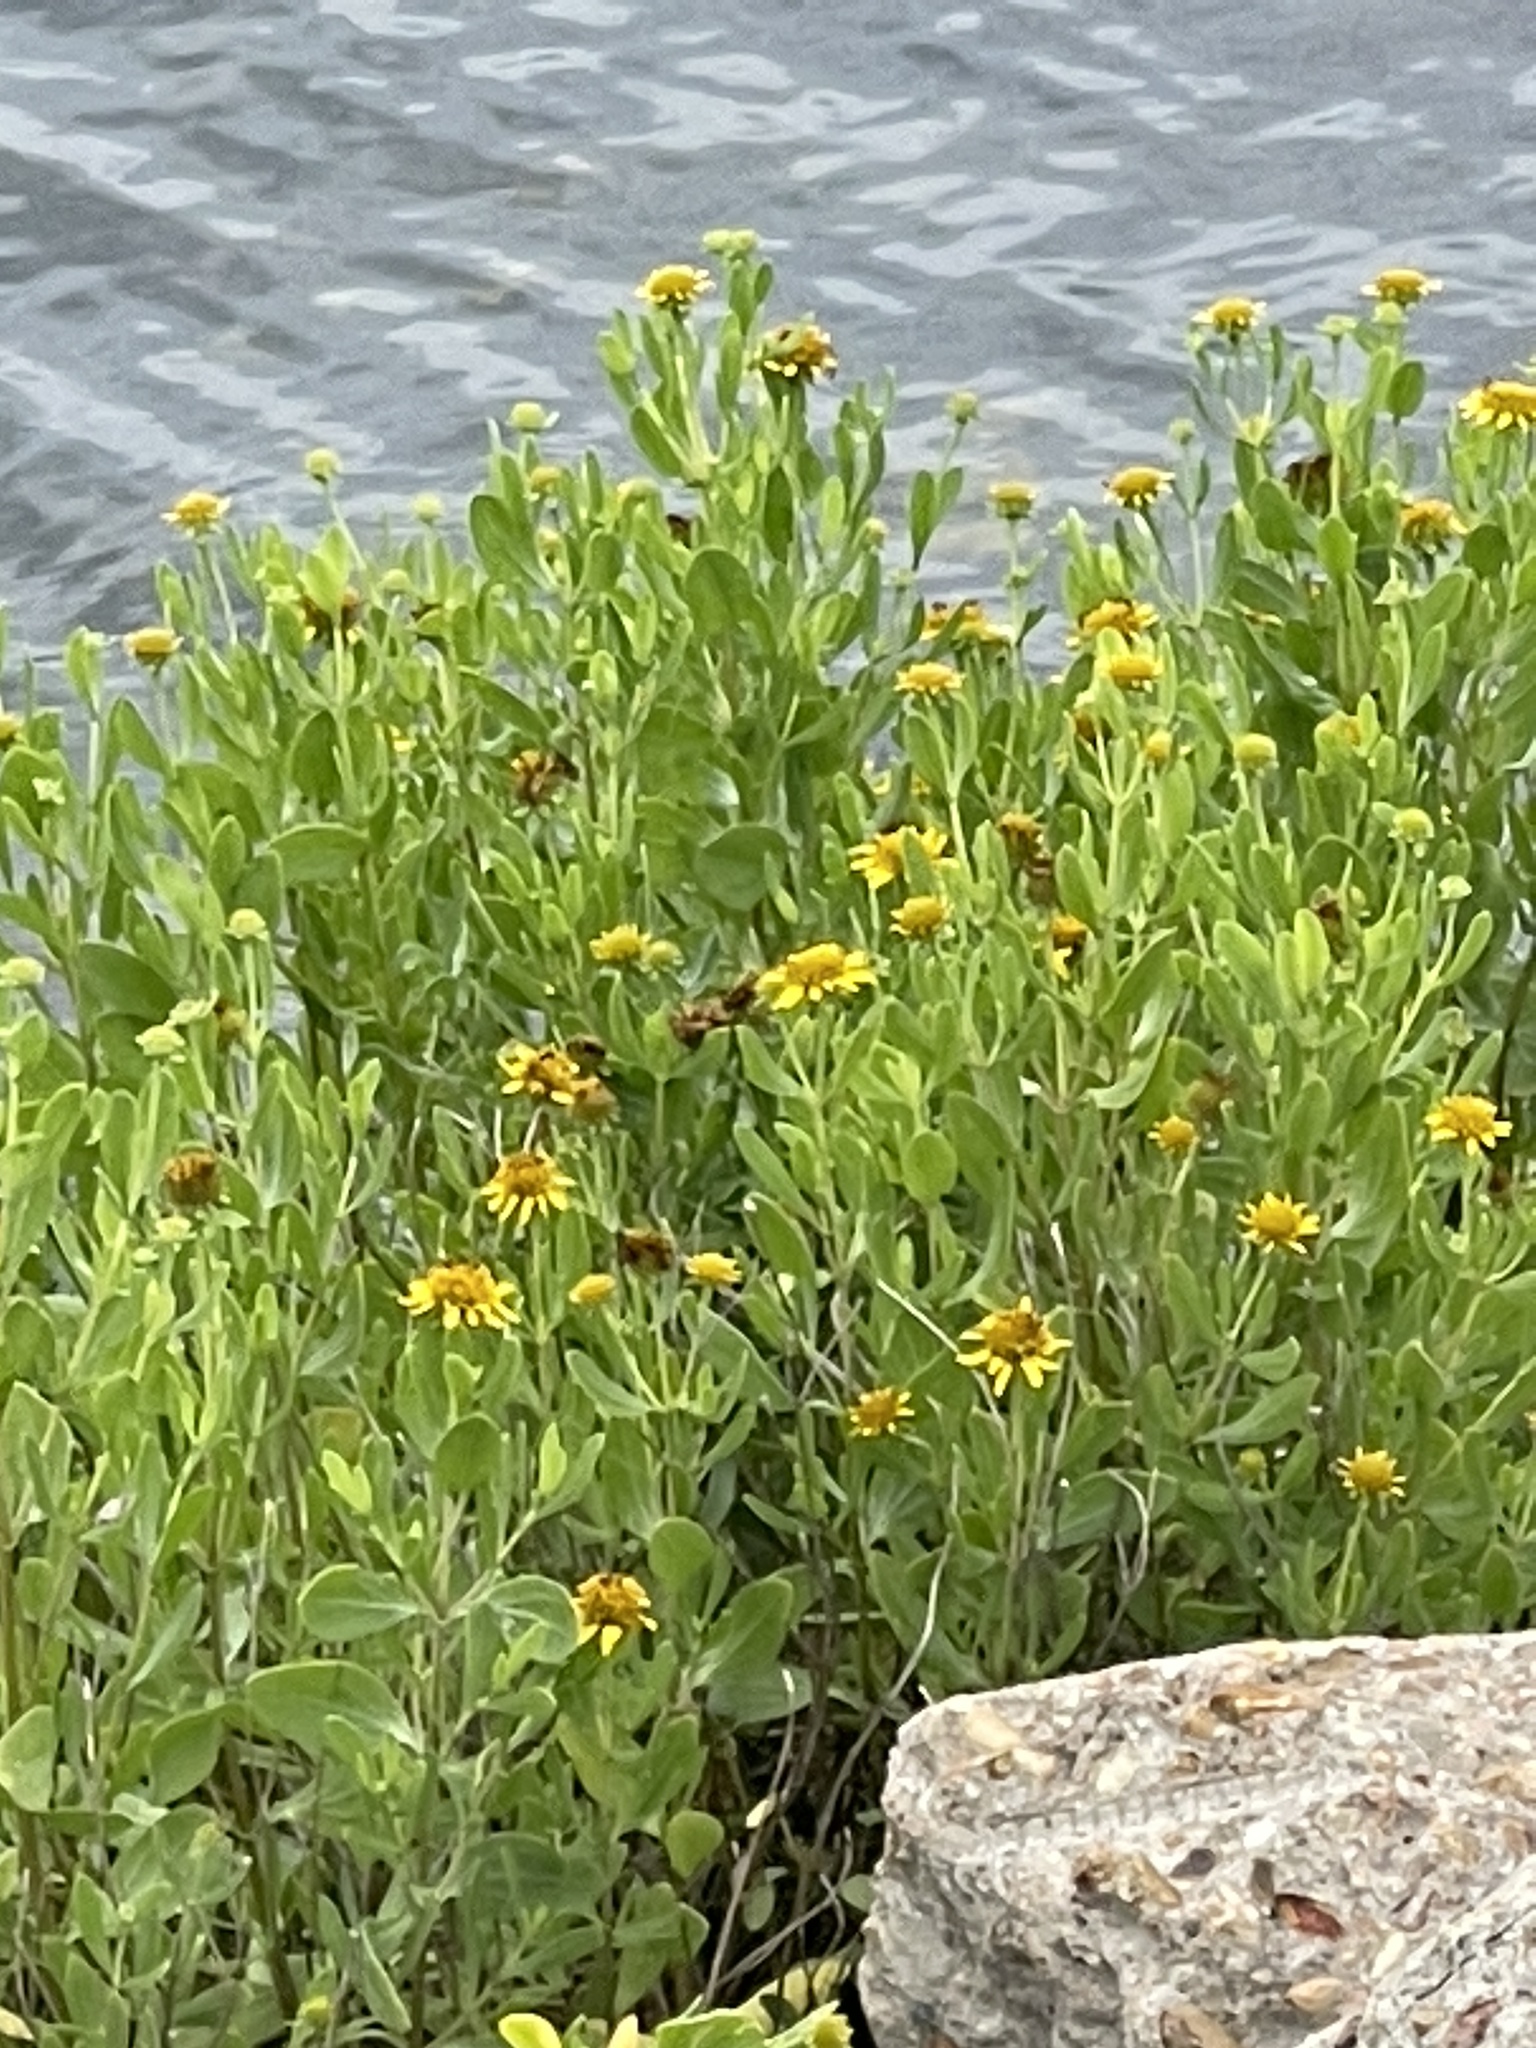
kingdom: Plantae
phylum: Tracheophyta
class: Magnoliopsida
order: Asterales
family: Asteraceae
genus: Borrichia
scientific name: Borrichia frutescens
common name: Sea oxeye
